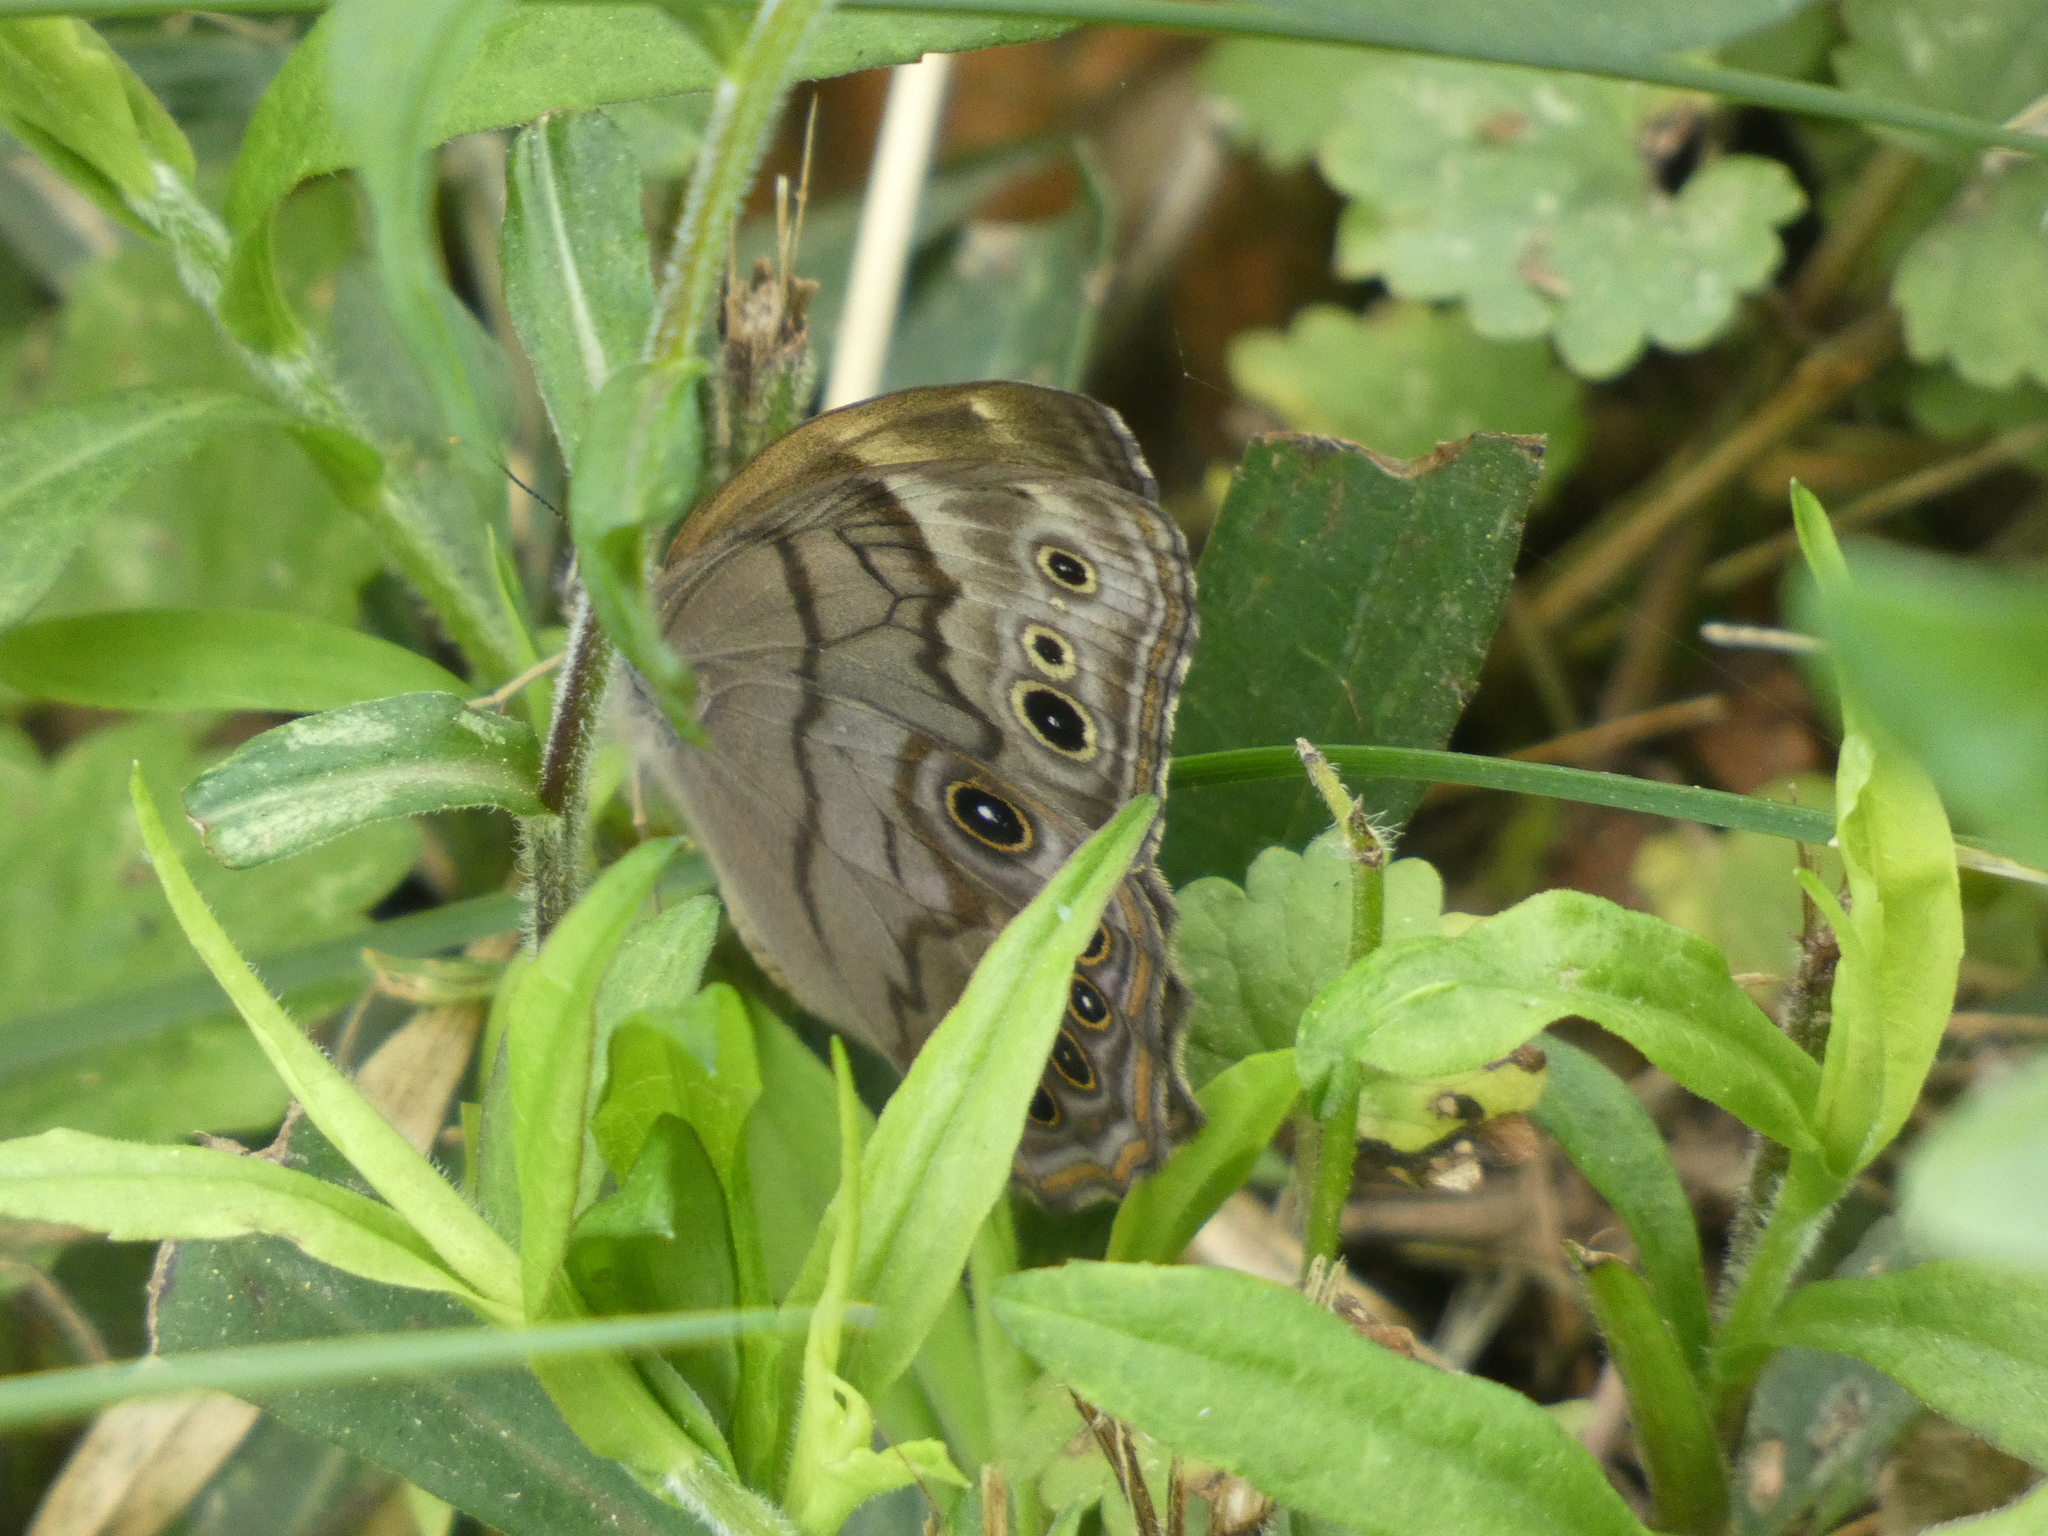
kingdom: Animalia
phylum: Arthropoda
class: Insecta
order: Lepidoptera
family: Nymphalidae
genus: Lethe
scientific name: Lethe anthedon
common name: Northern pearly-eye
